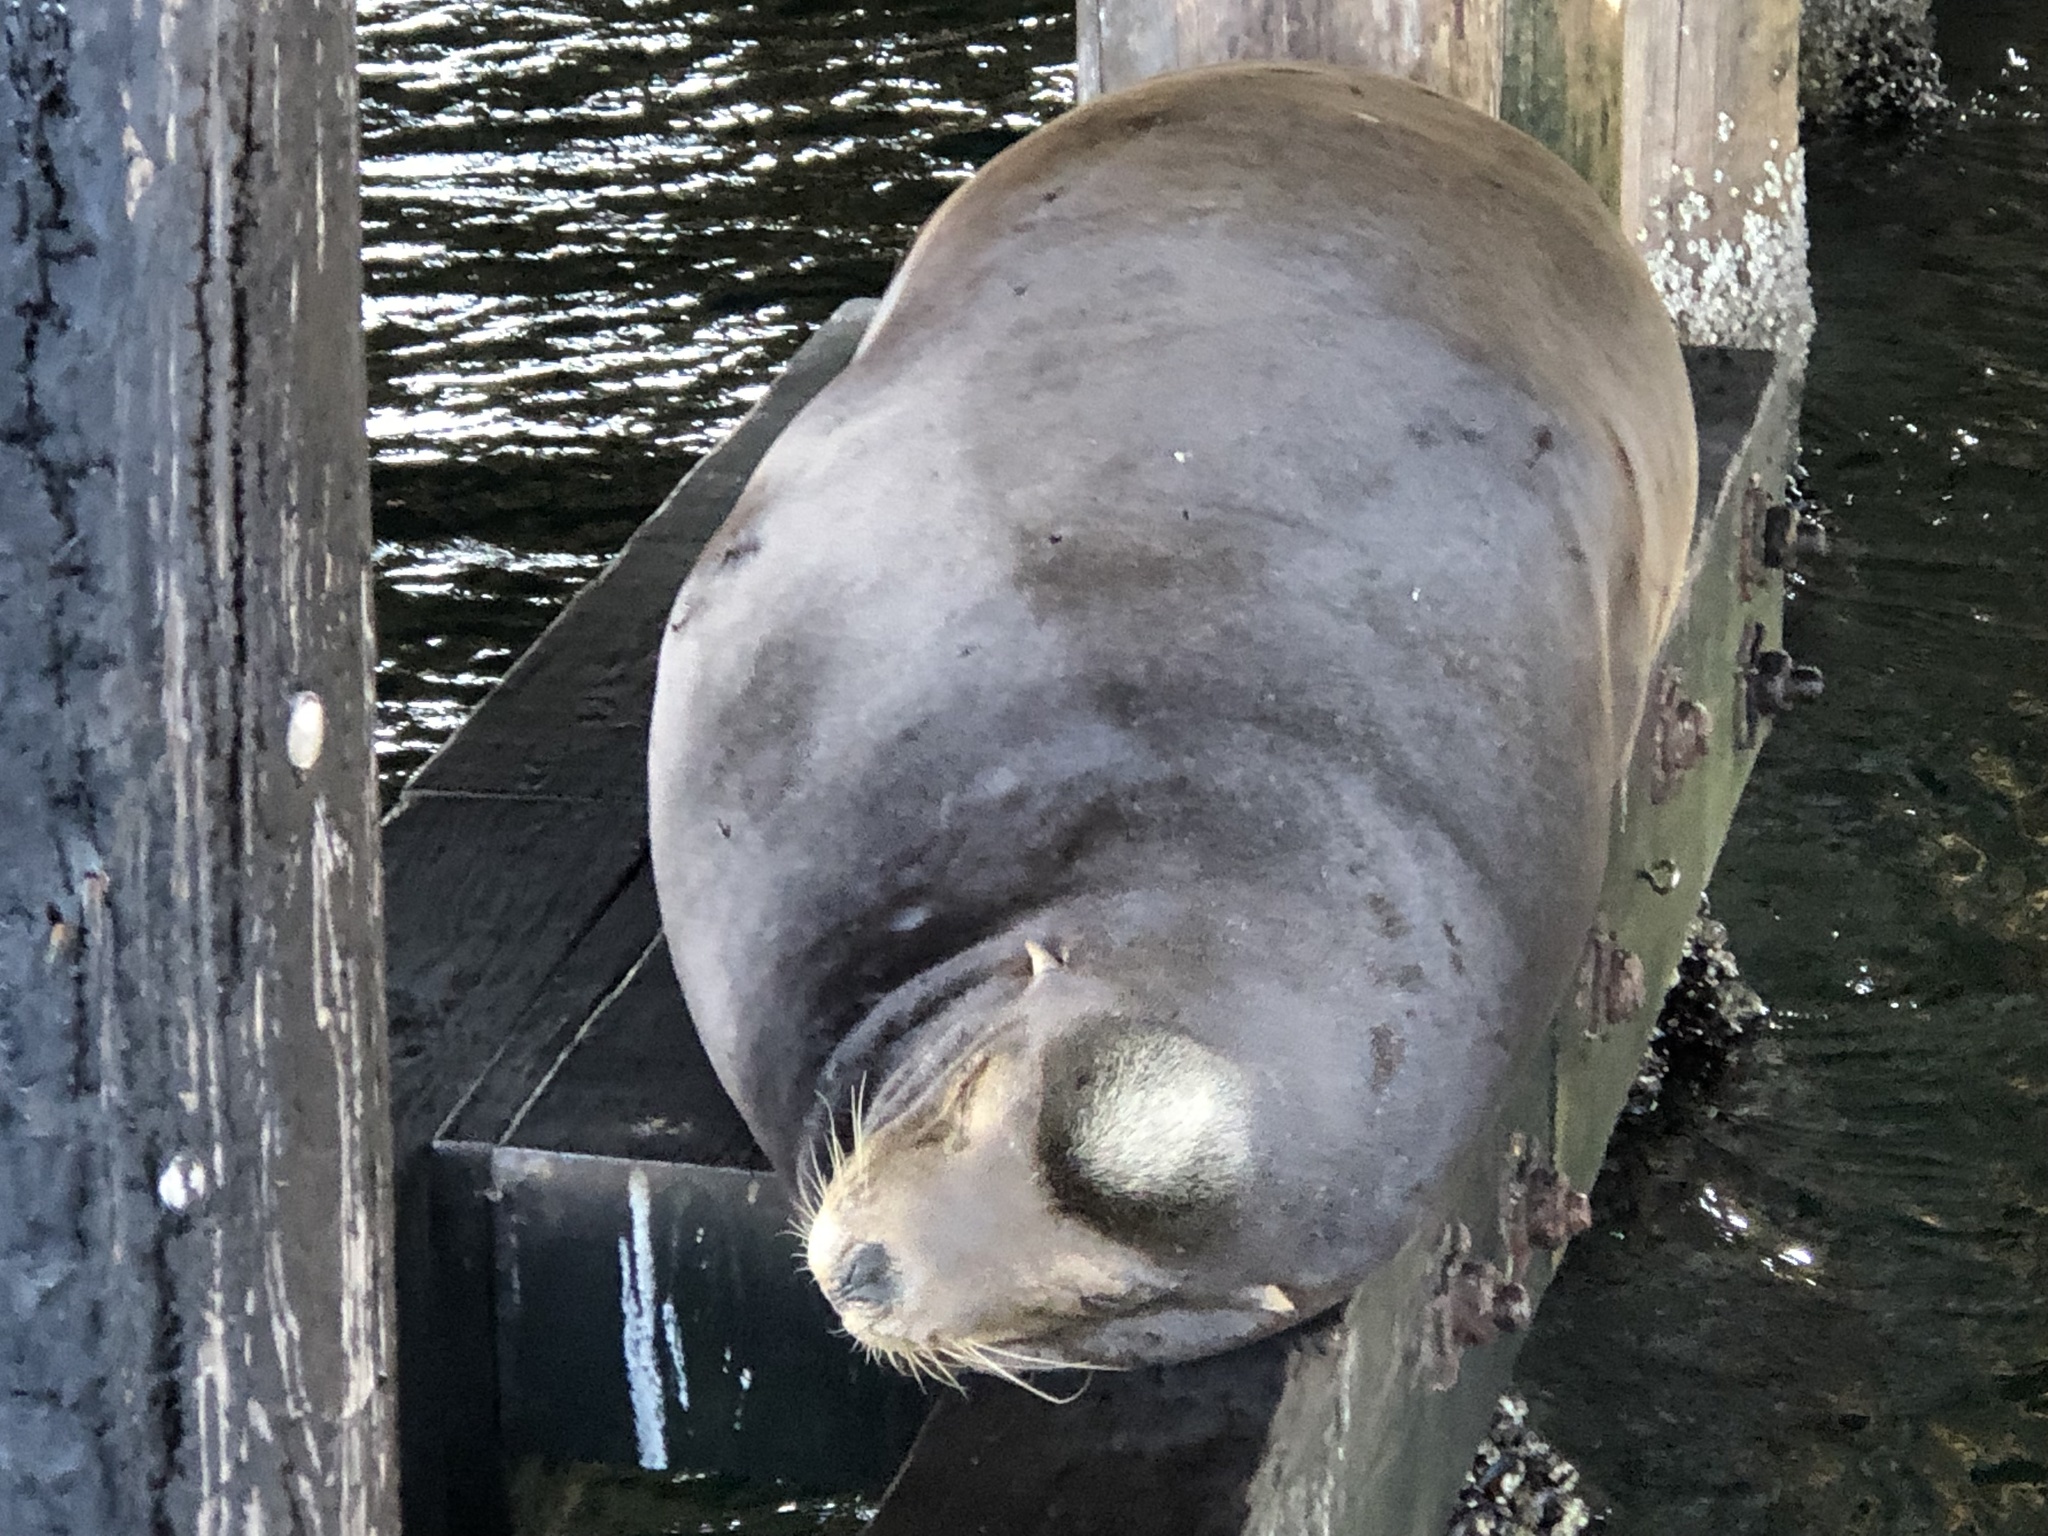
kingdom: Animalia
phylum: Chordata
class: Mammalia
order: Carnivora
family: Otariidae
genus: Zalophus
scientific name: Zalophus californianus
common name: California sea lion
